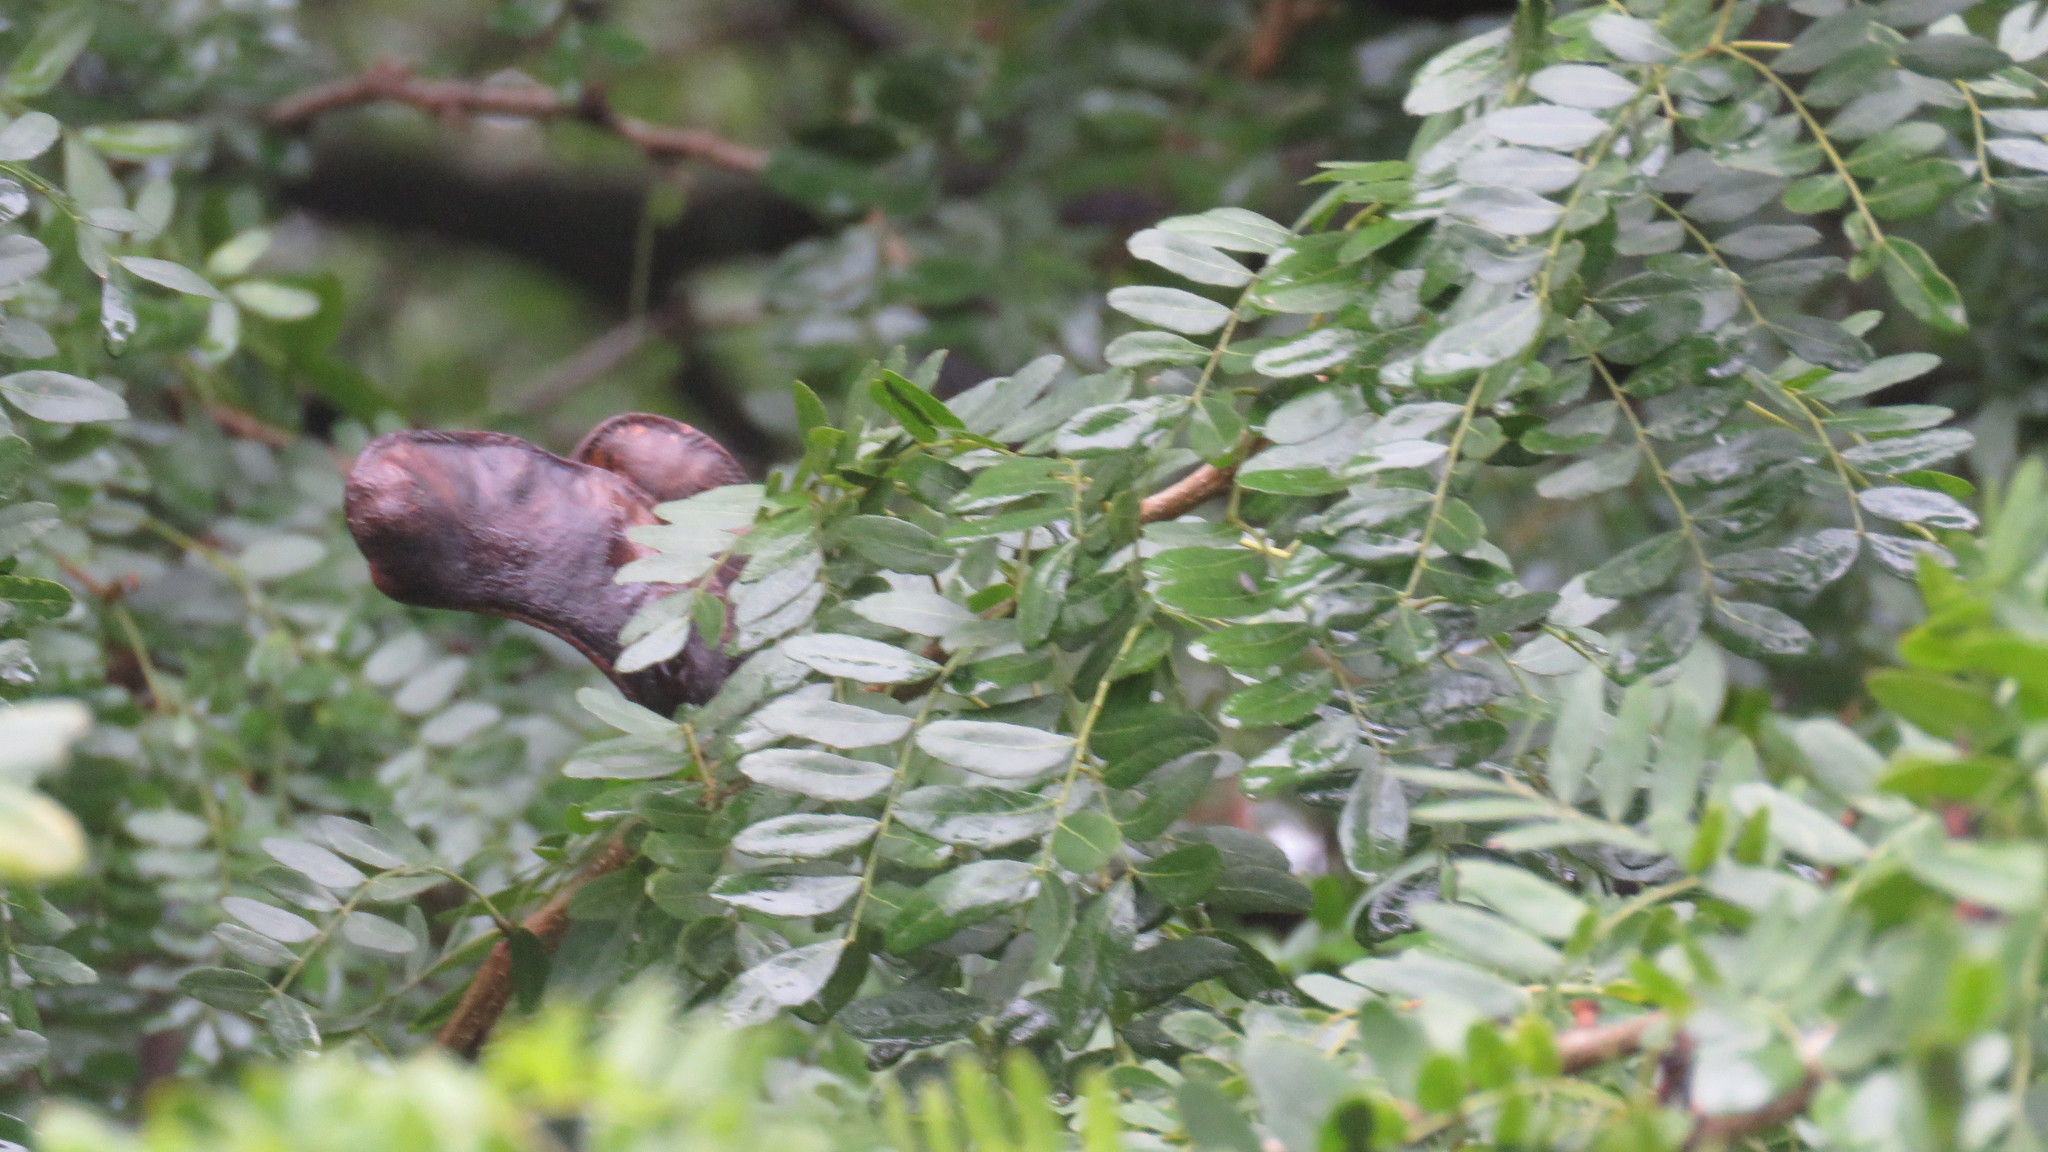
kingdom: Plantae
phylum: Tracheophyta
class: Magnoliopsida
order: Fabales
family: Fabaceae
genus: Gleditsia
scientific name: Gleditsia amorphoides
